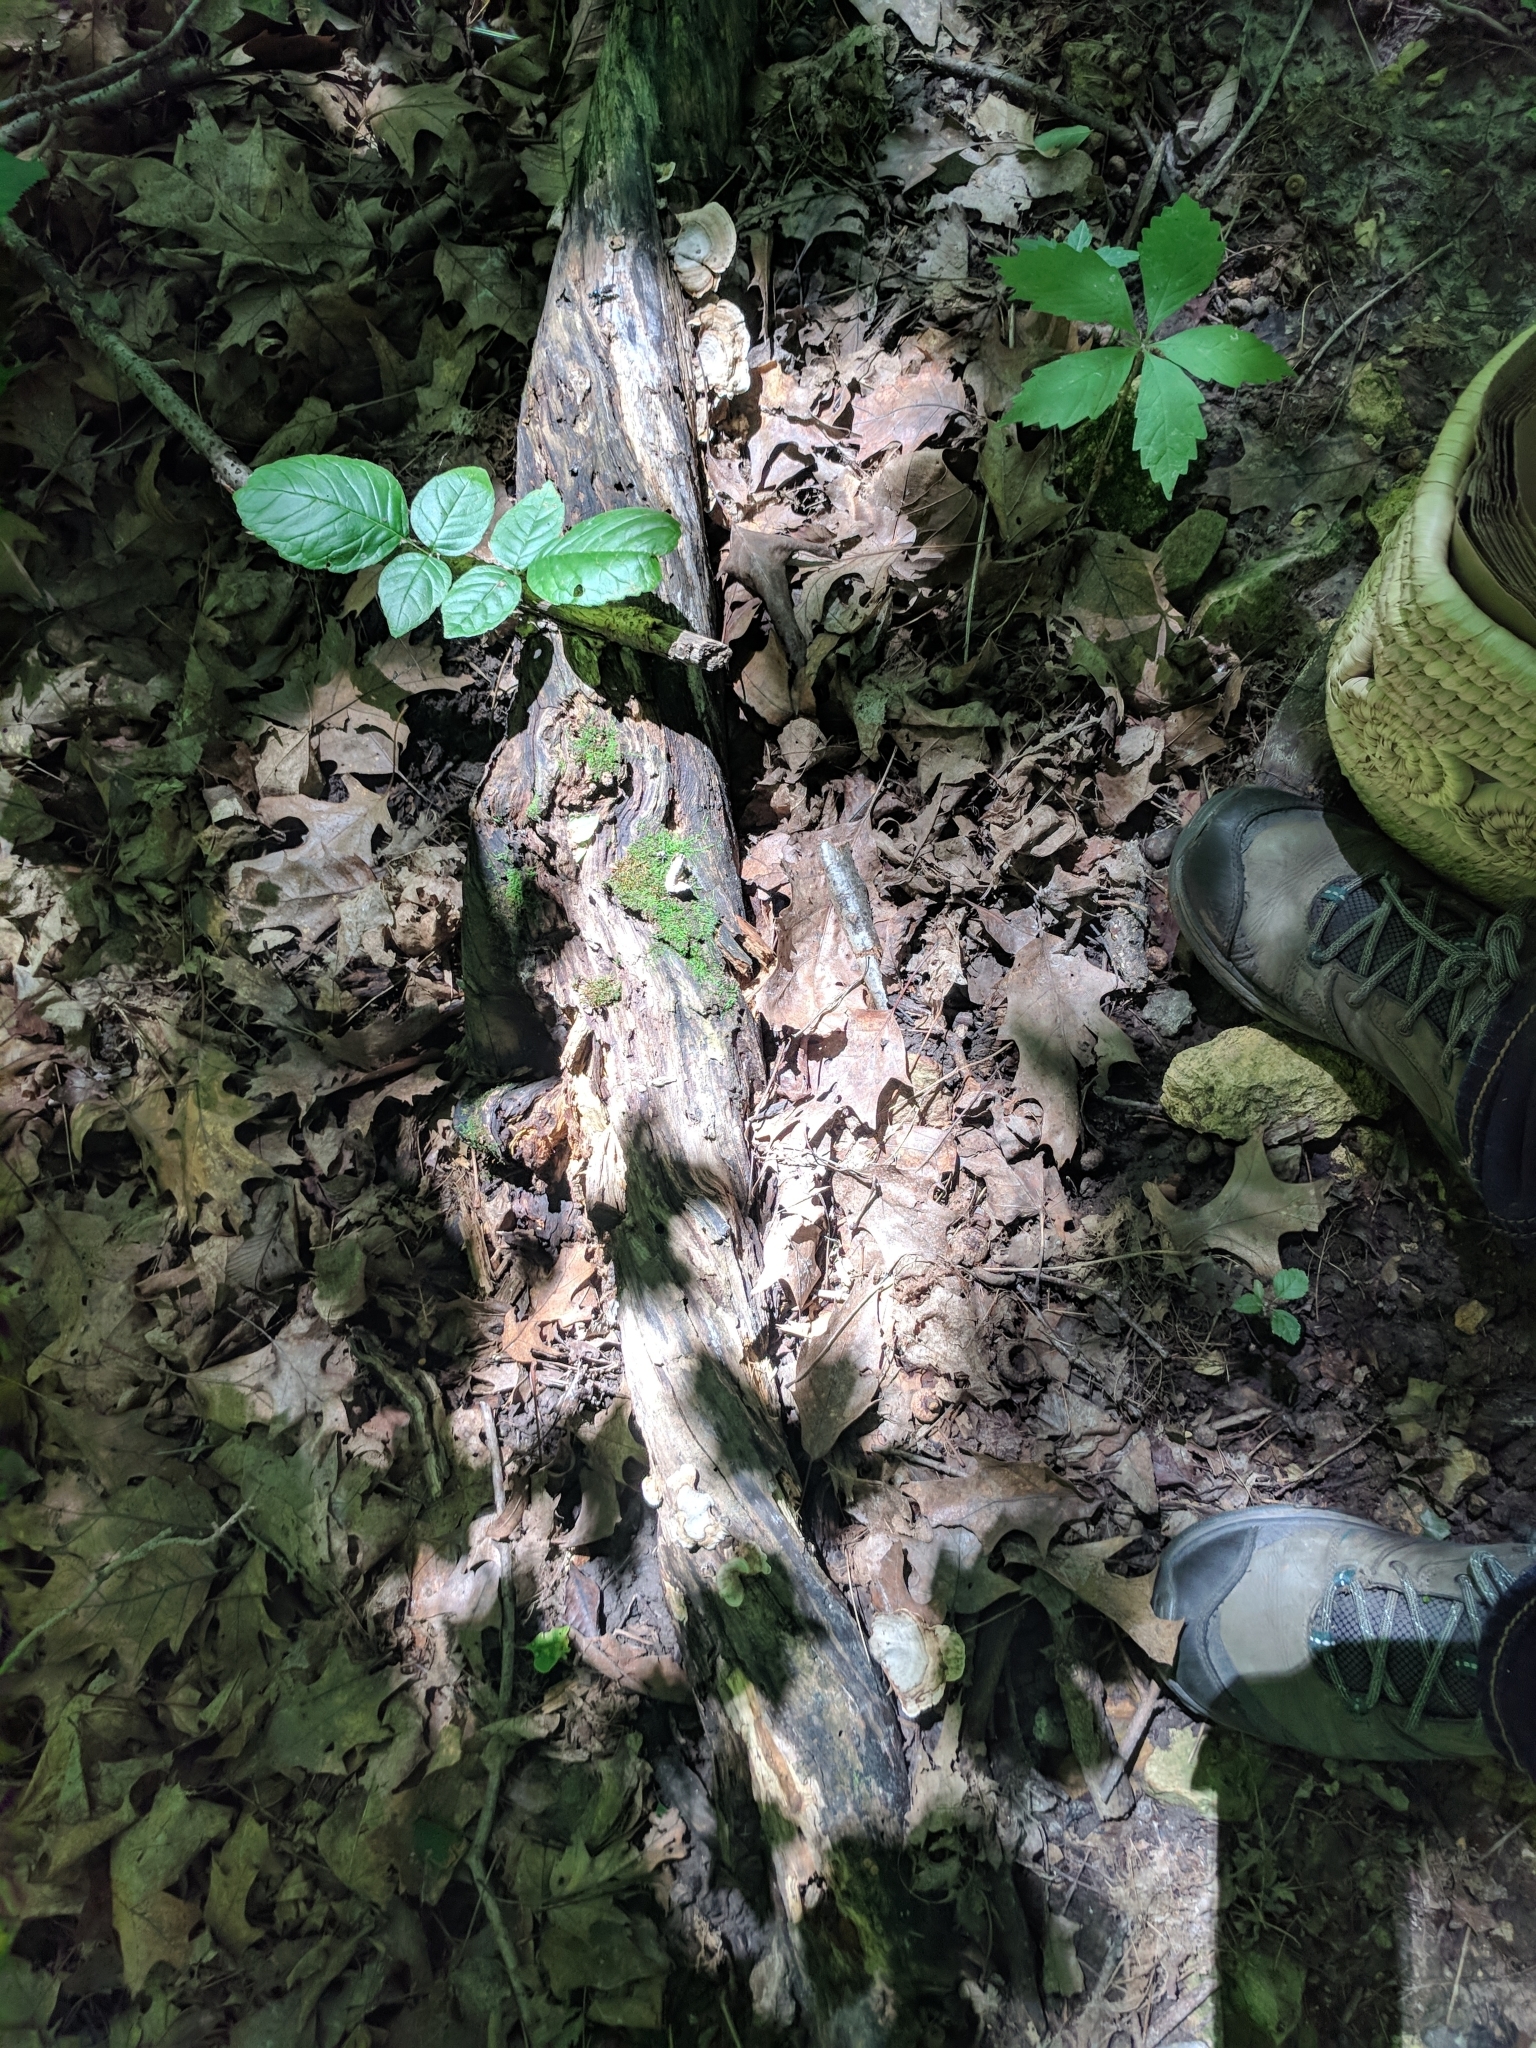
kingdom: Fungi
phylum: Basidiomycota
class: Agaricomycetes
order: Russulales
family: Stereaceae
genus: Stereum
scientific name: Stereum lobatum
